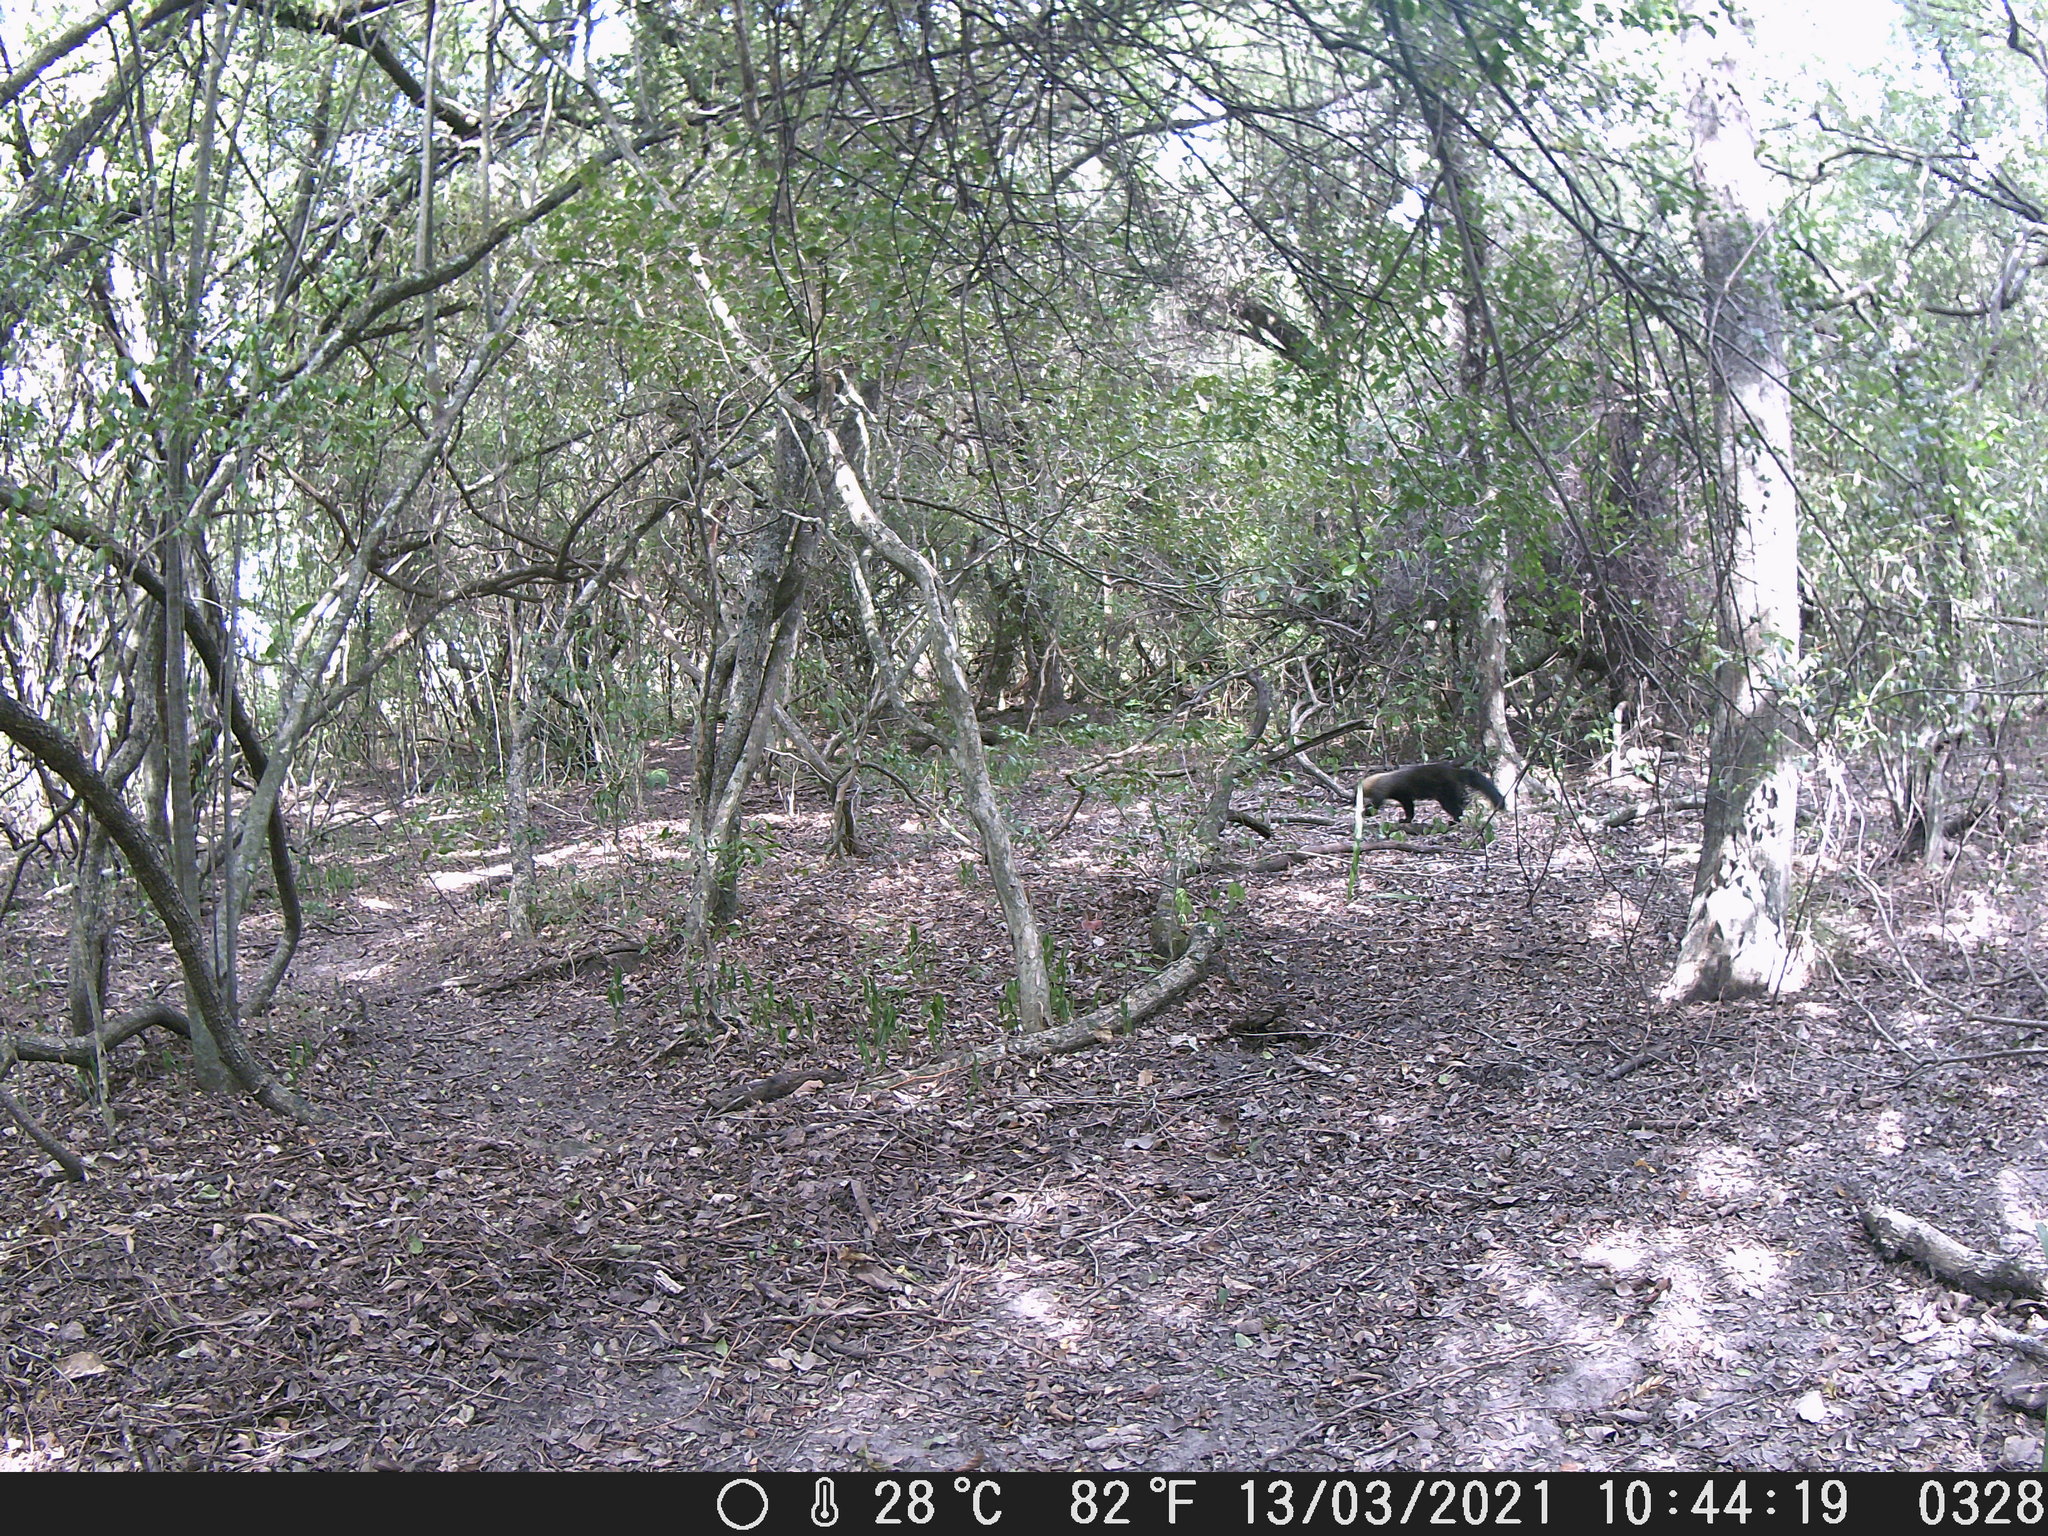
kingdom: Animalia
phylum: Chordata
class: Mammalia
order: Carnivora
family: Mustelidae
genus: Eira
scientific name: Eira barbara
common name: Tayra
